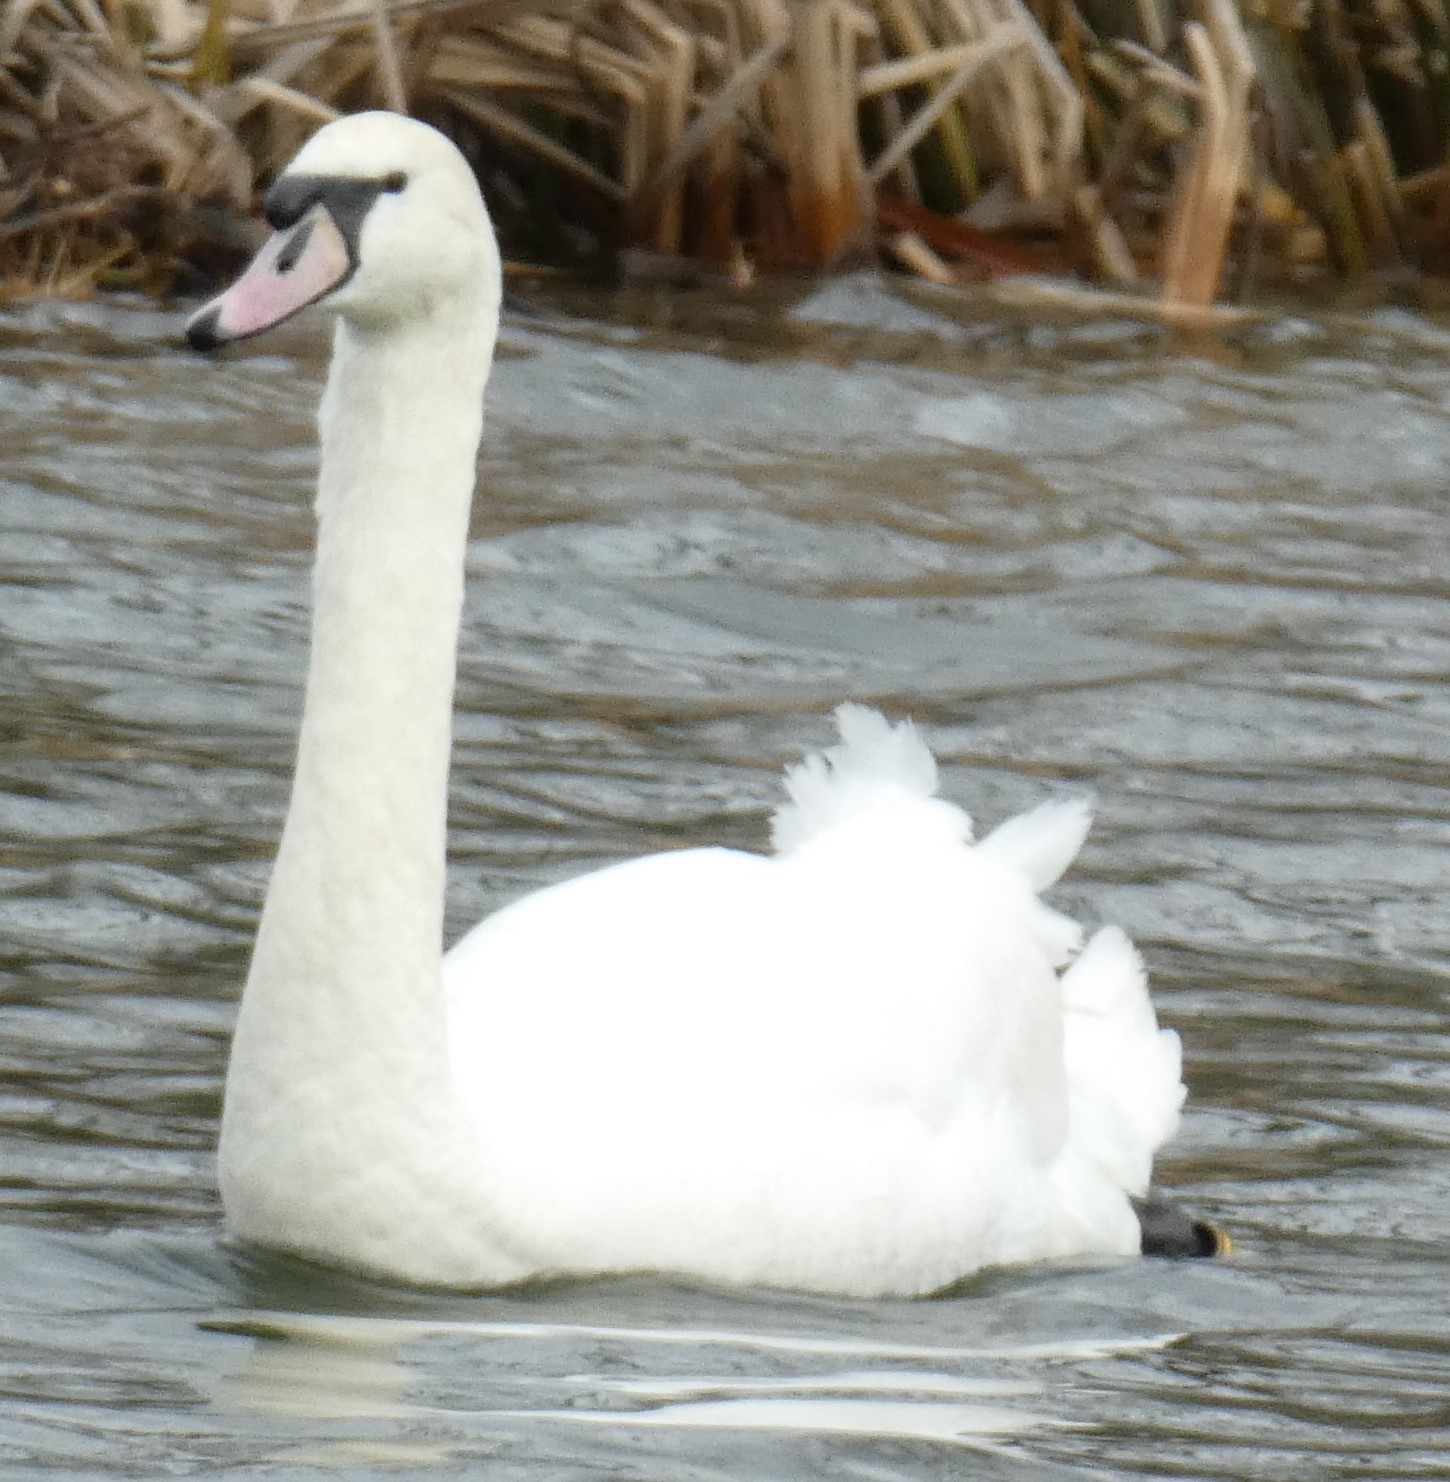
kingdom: Animalia
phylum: Chordata
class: Aves
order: Anseriformes
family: Anatidae
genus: Cygnus
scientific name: Cygnus olor
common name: Mute swan
